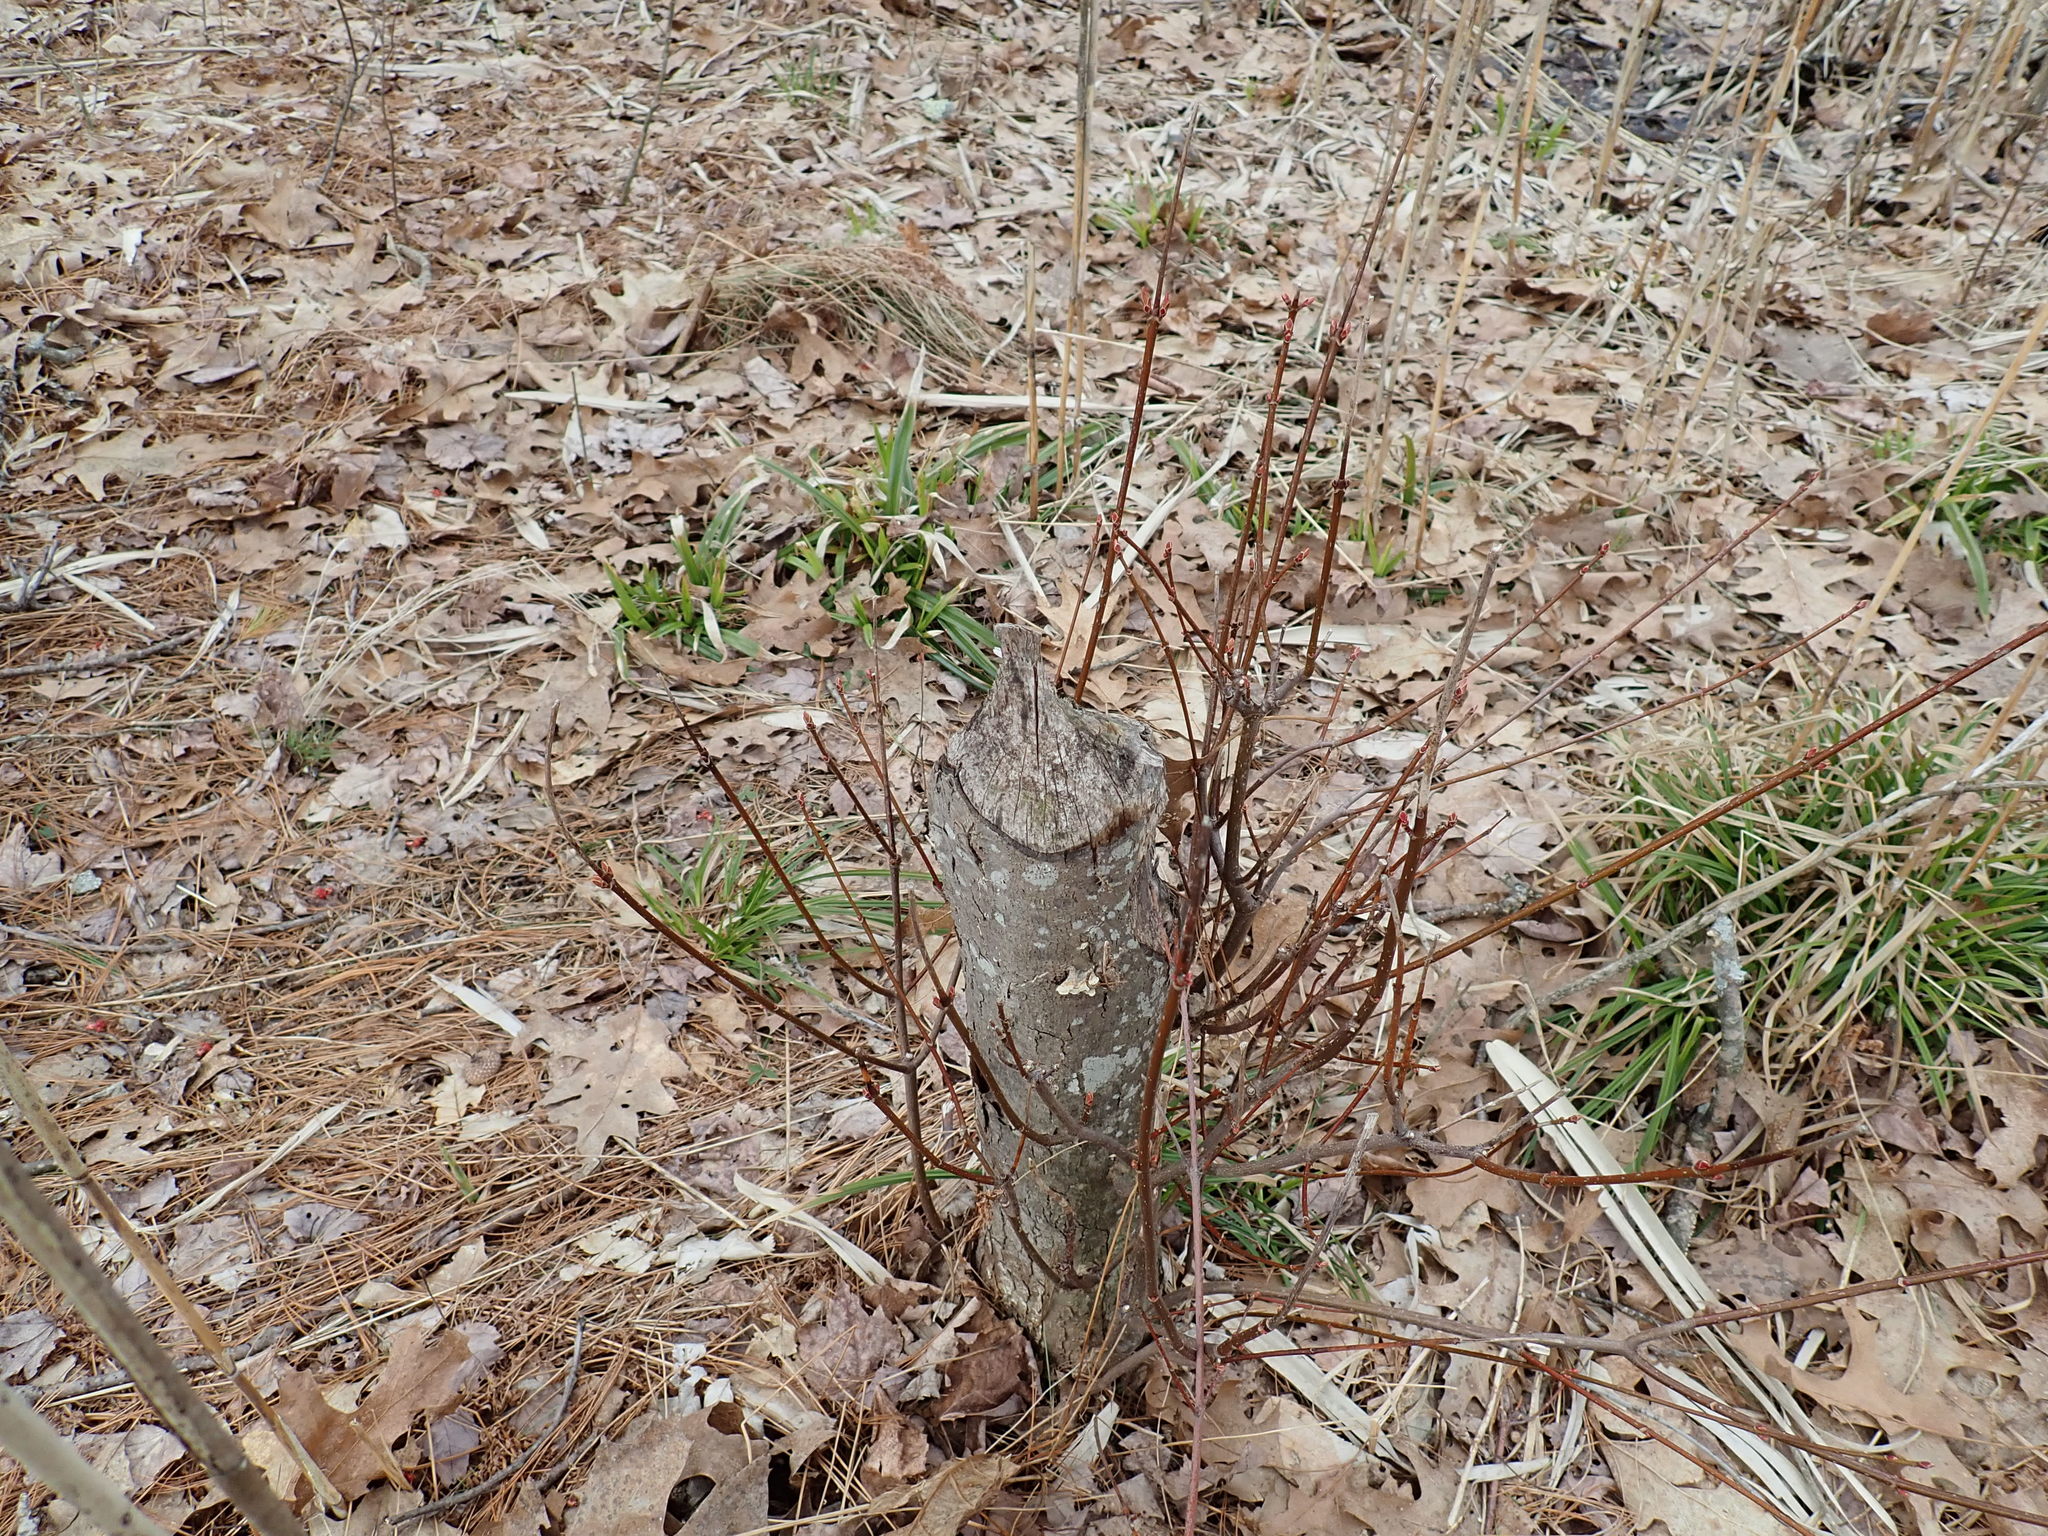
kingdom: Animalia
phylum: Chordata
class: Mammalia
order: Rodentia
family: Castoridae
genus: Castor
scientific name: Castor canadensis
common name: American beaver
